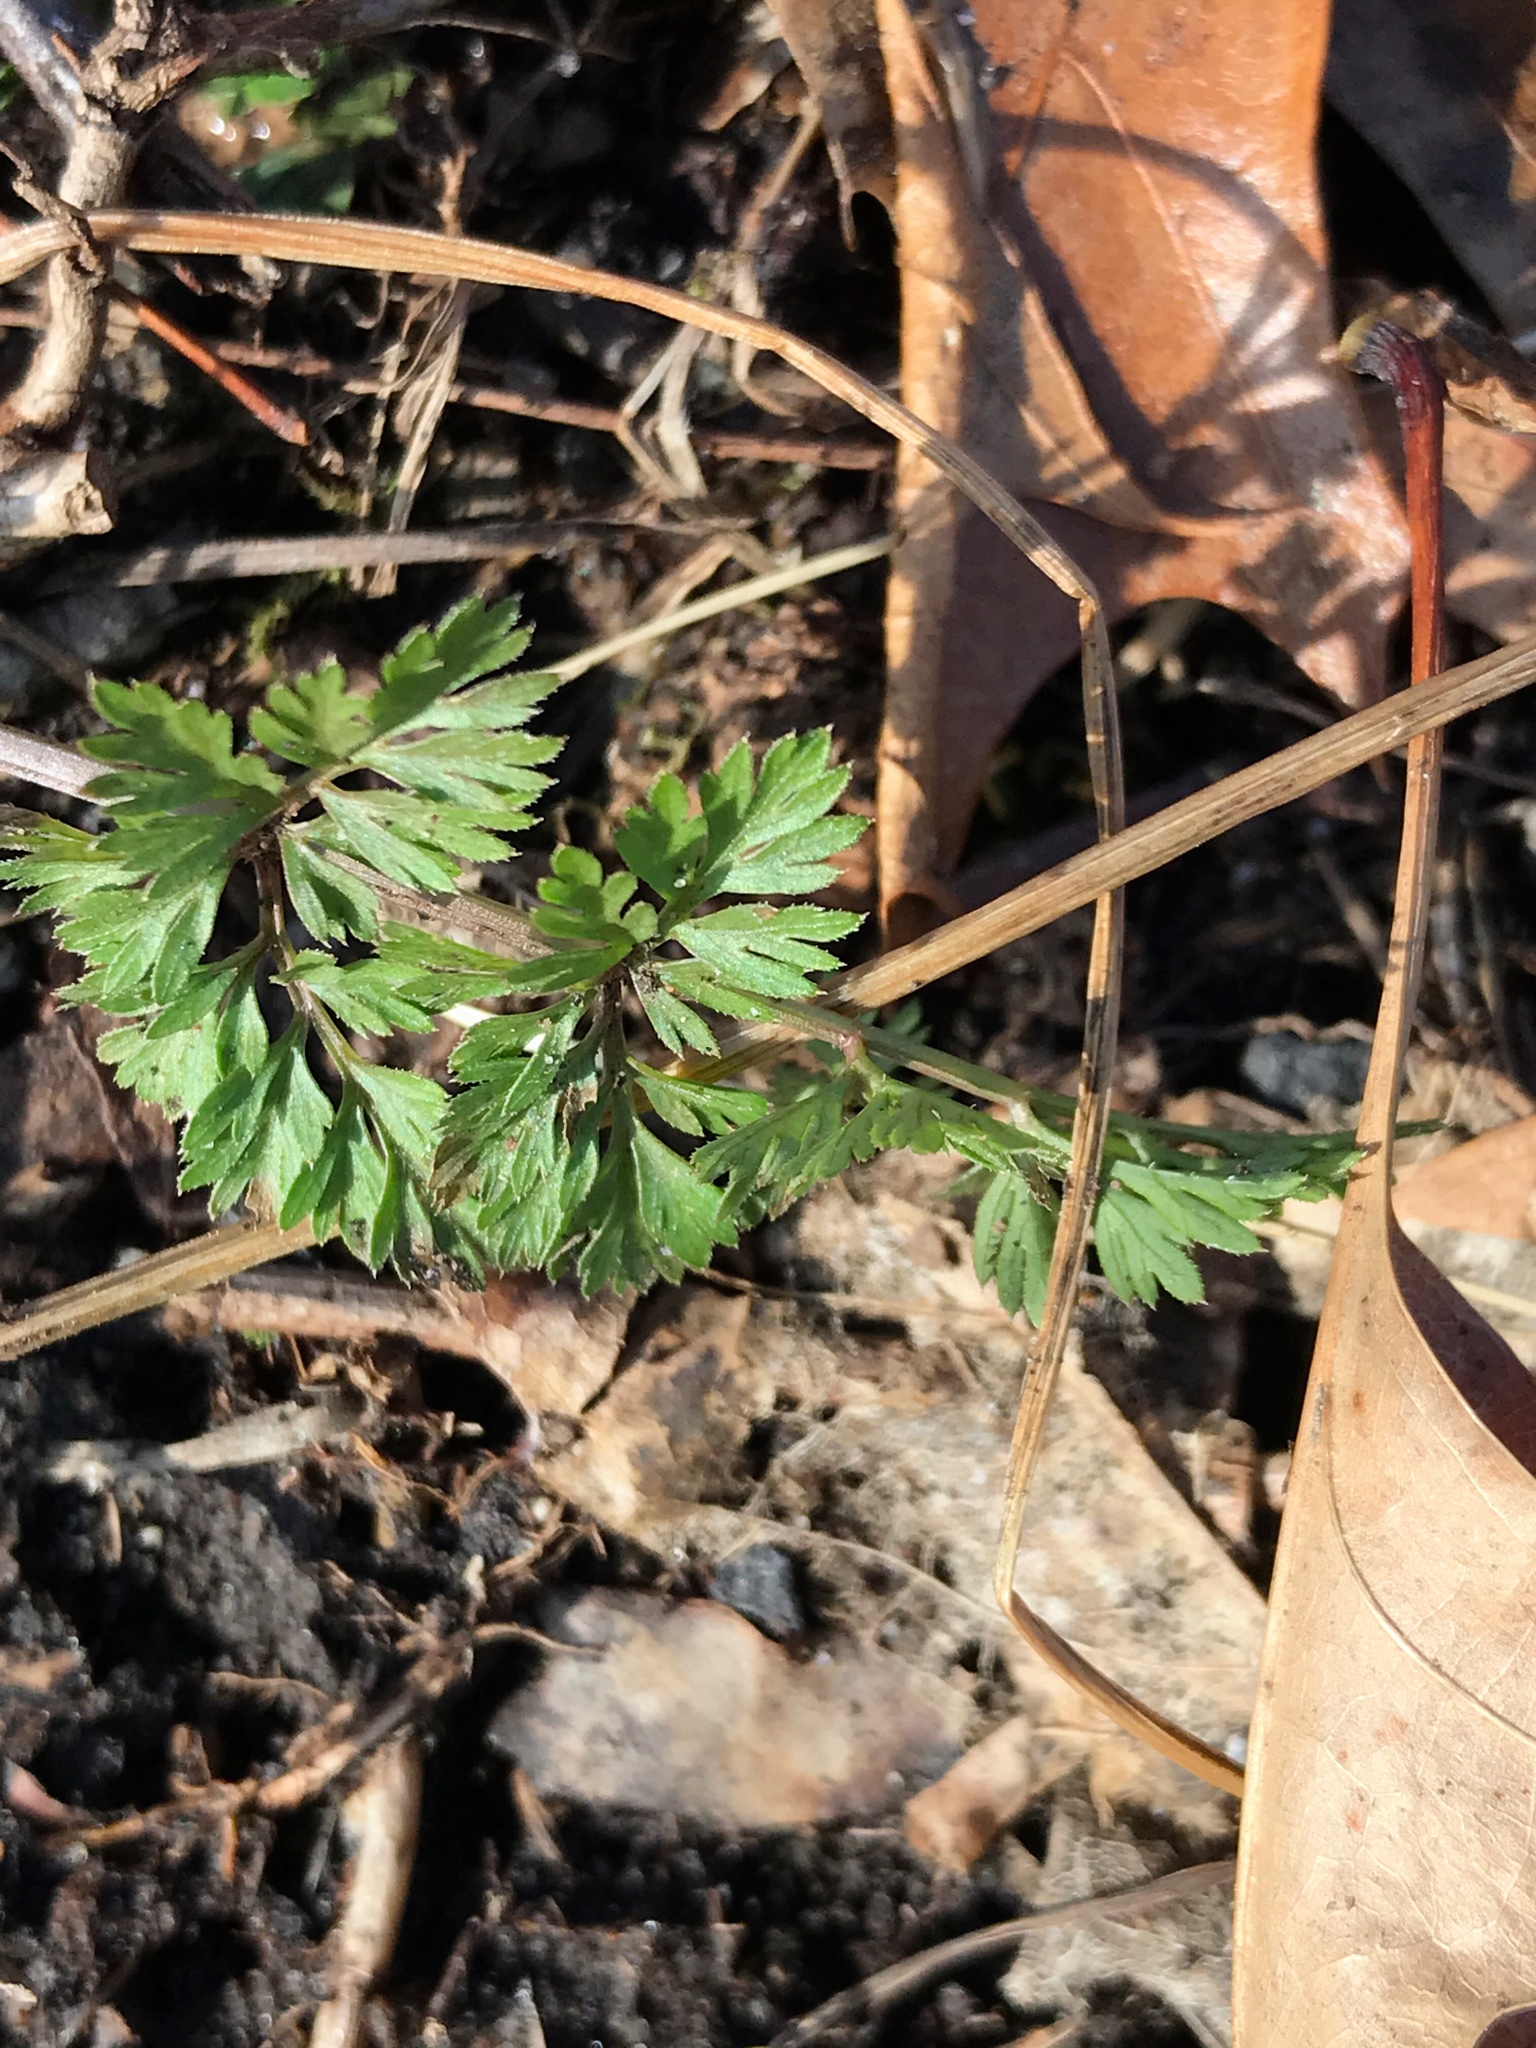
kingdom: Plantae
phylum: Tracheophyta
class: Magnoliopsida
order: Apiales
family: Apiaceae
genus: Daucus
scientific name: Daucus carota
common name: Wild carrot
